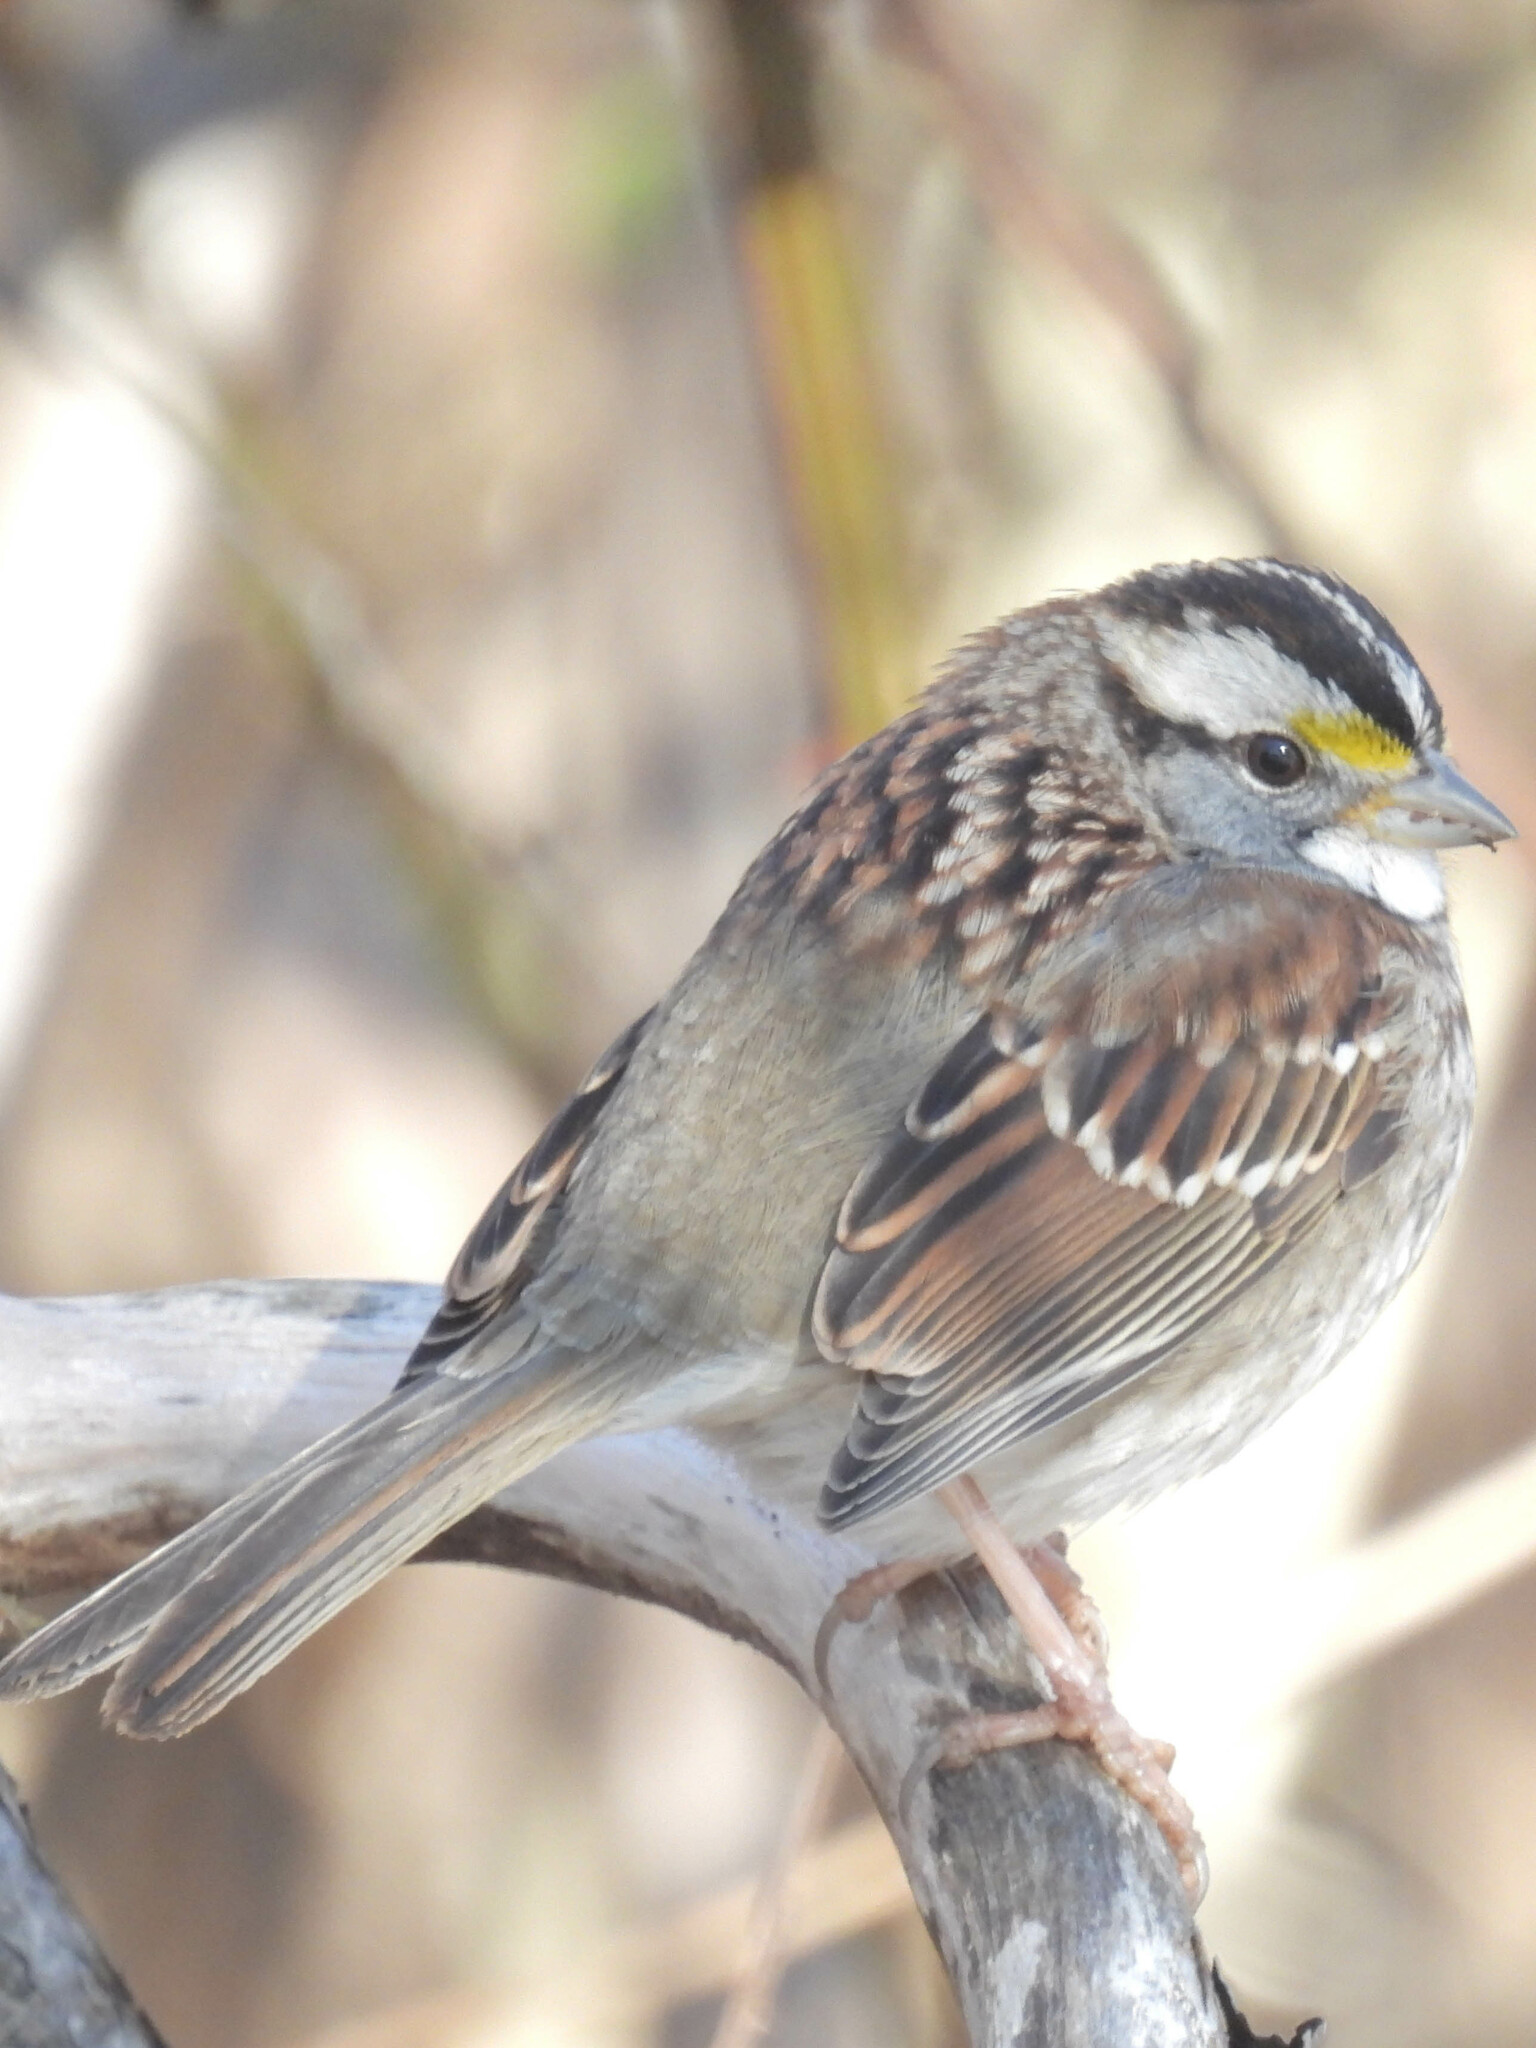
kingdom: Animalia
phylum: Chordata
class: Aves
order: Passeriformes
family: Passerellidae
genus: Zonotrichia
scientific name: Zonotrichia albicollis
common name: White-throated sparrow
